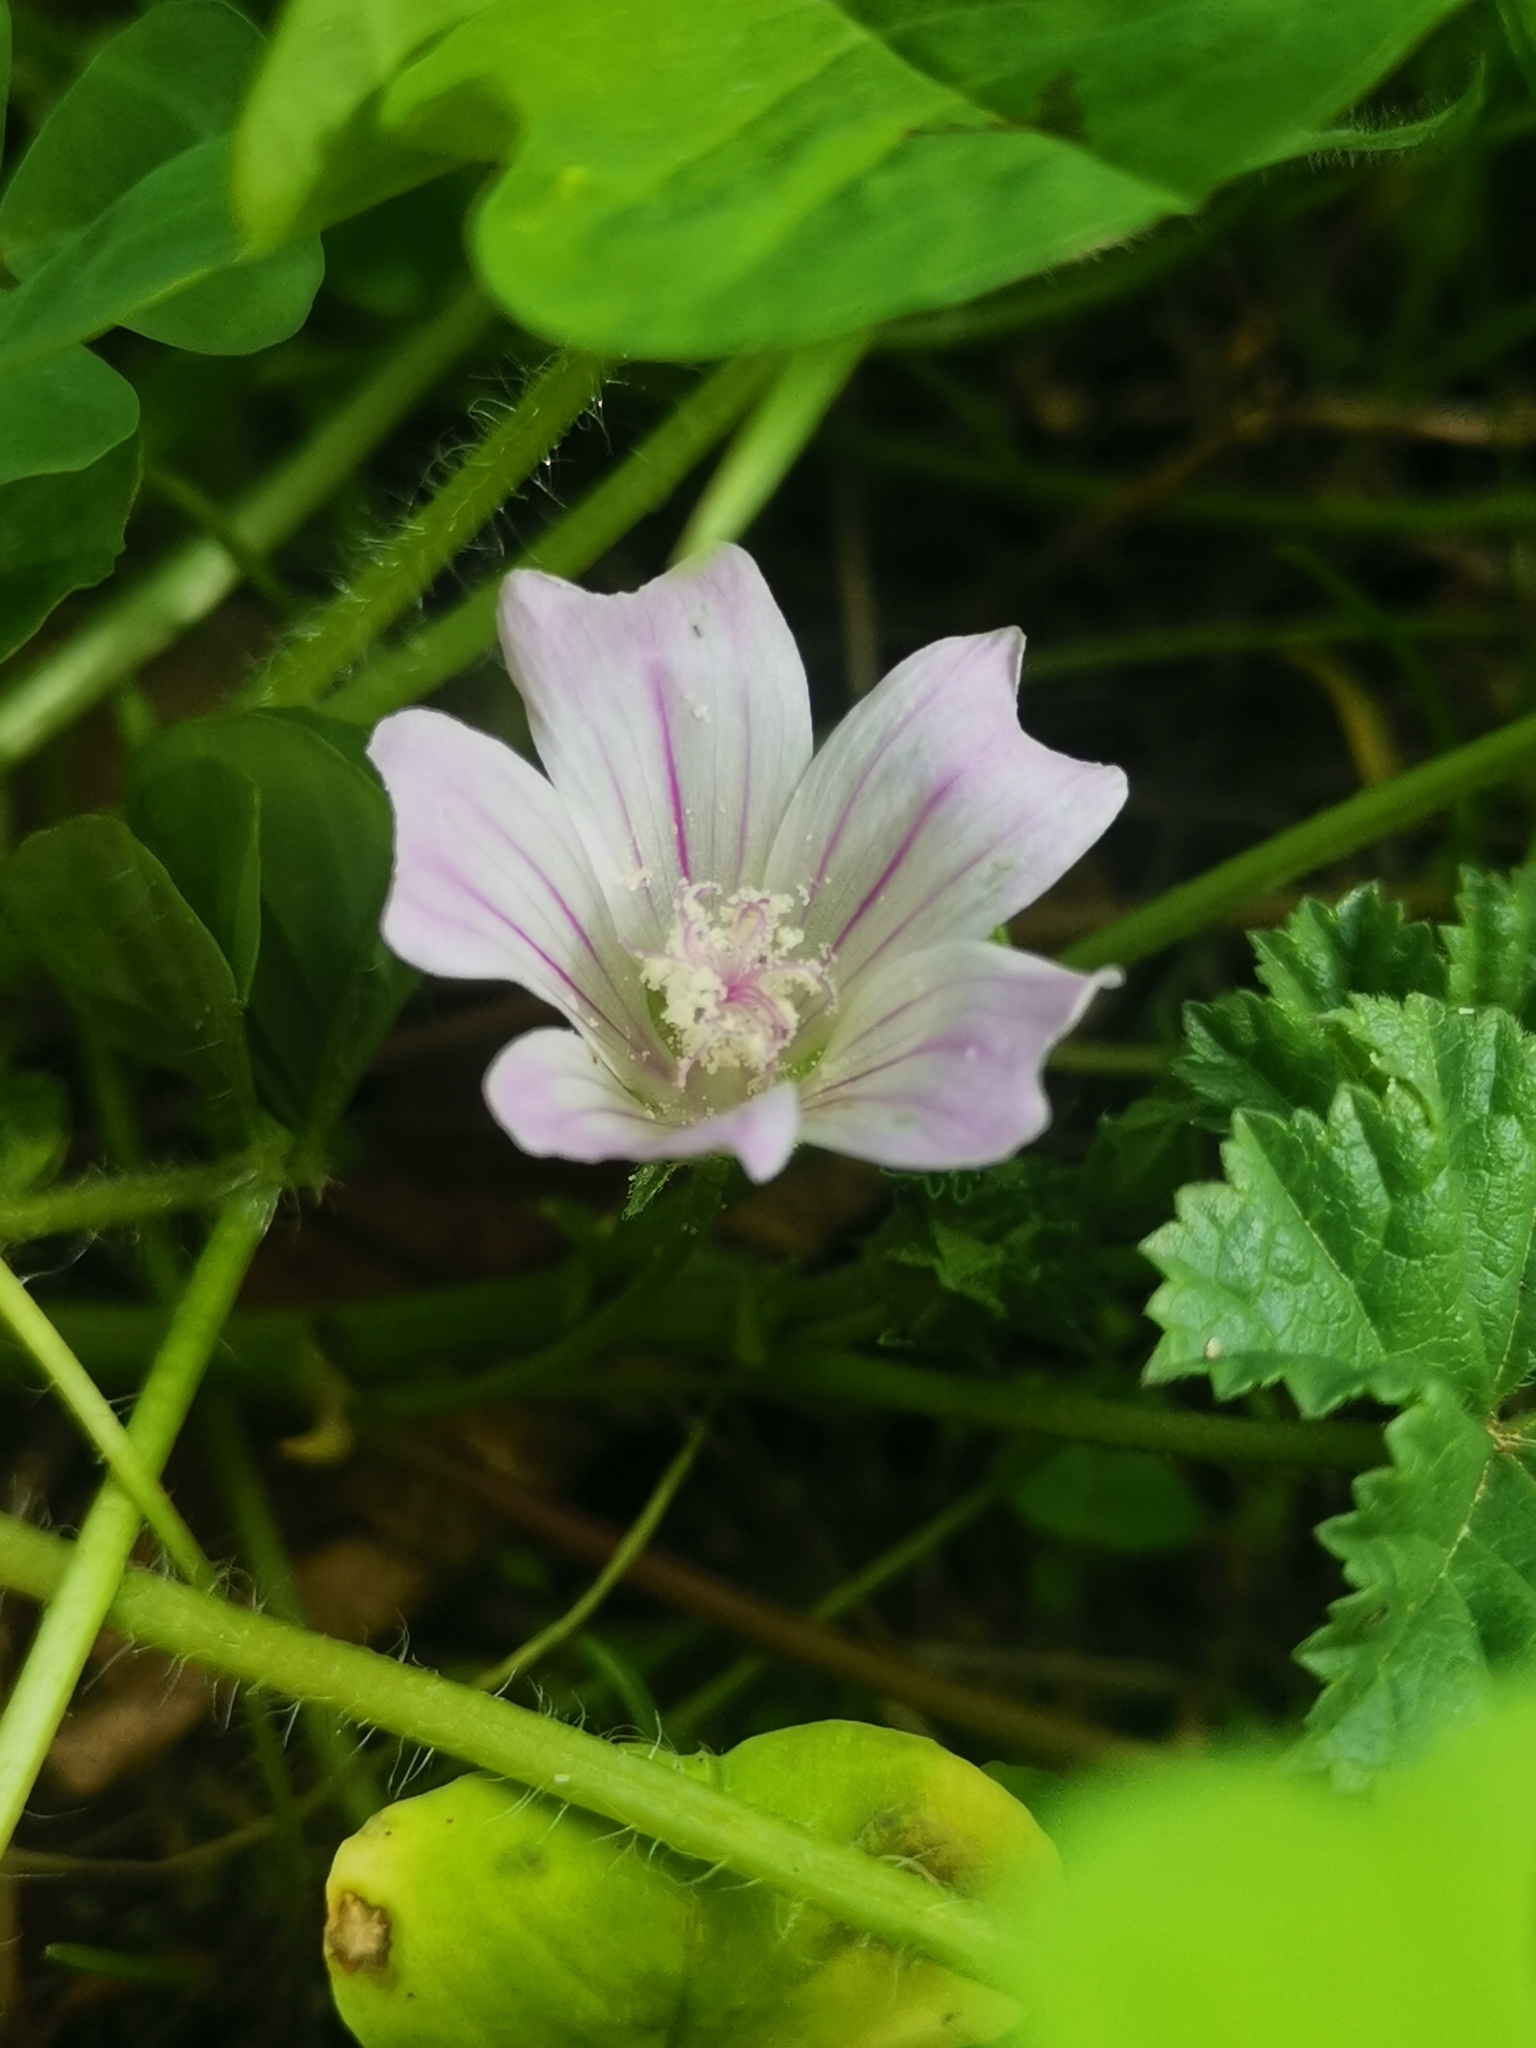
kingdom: Plantae
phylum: Tracheophyta
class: Magnoliopsida
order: Malvales
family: Malvaceae
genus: Malva
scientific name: Malva neglecta
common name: Common mallow
